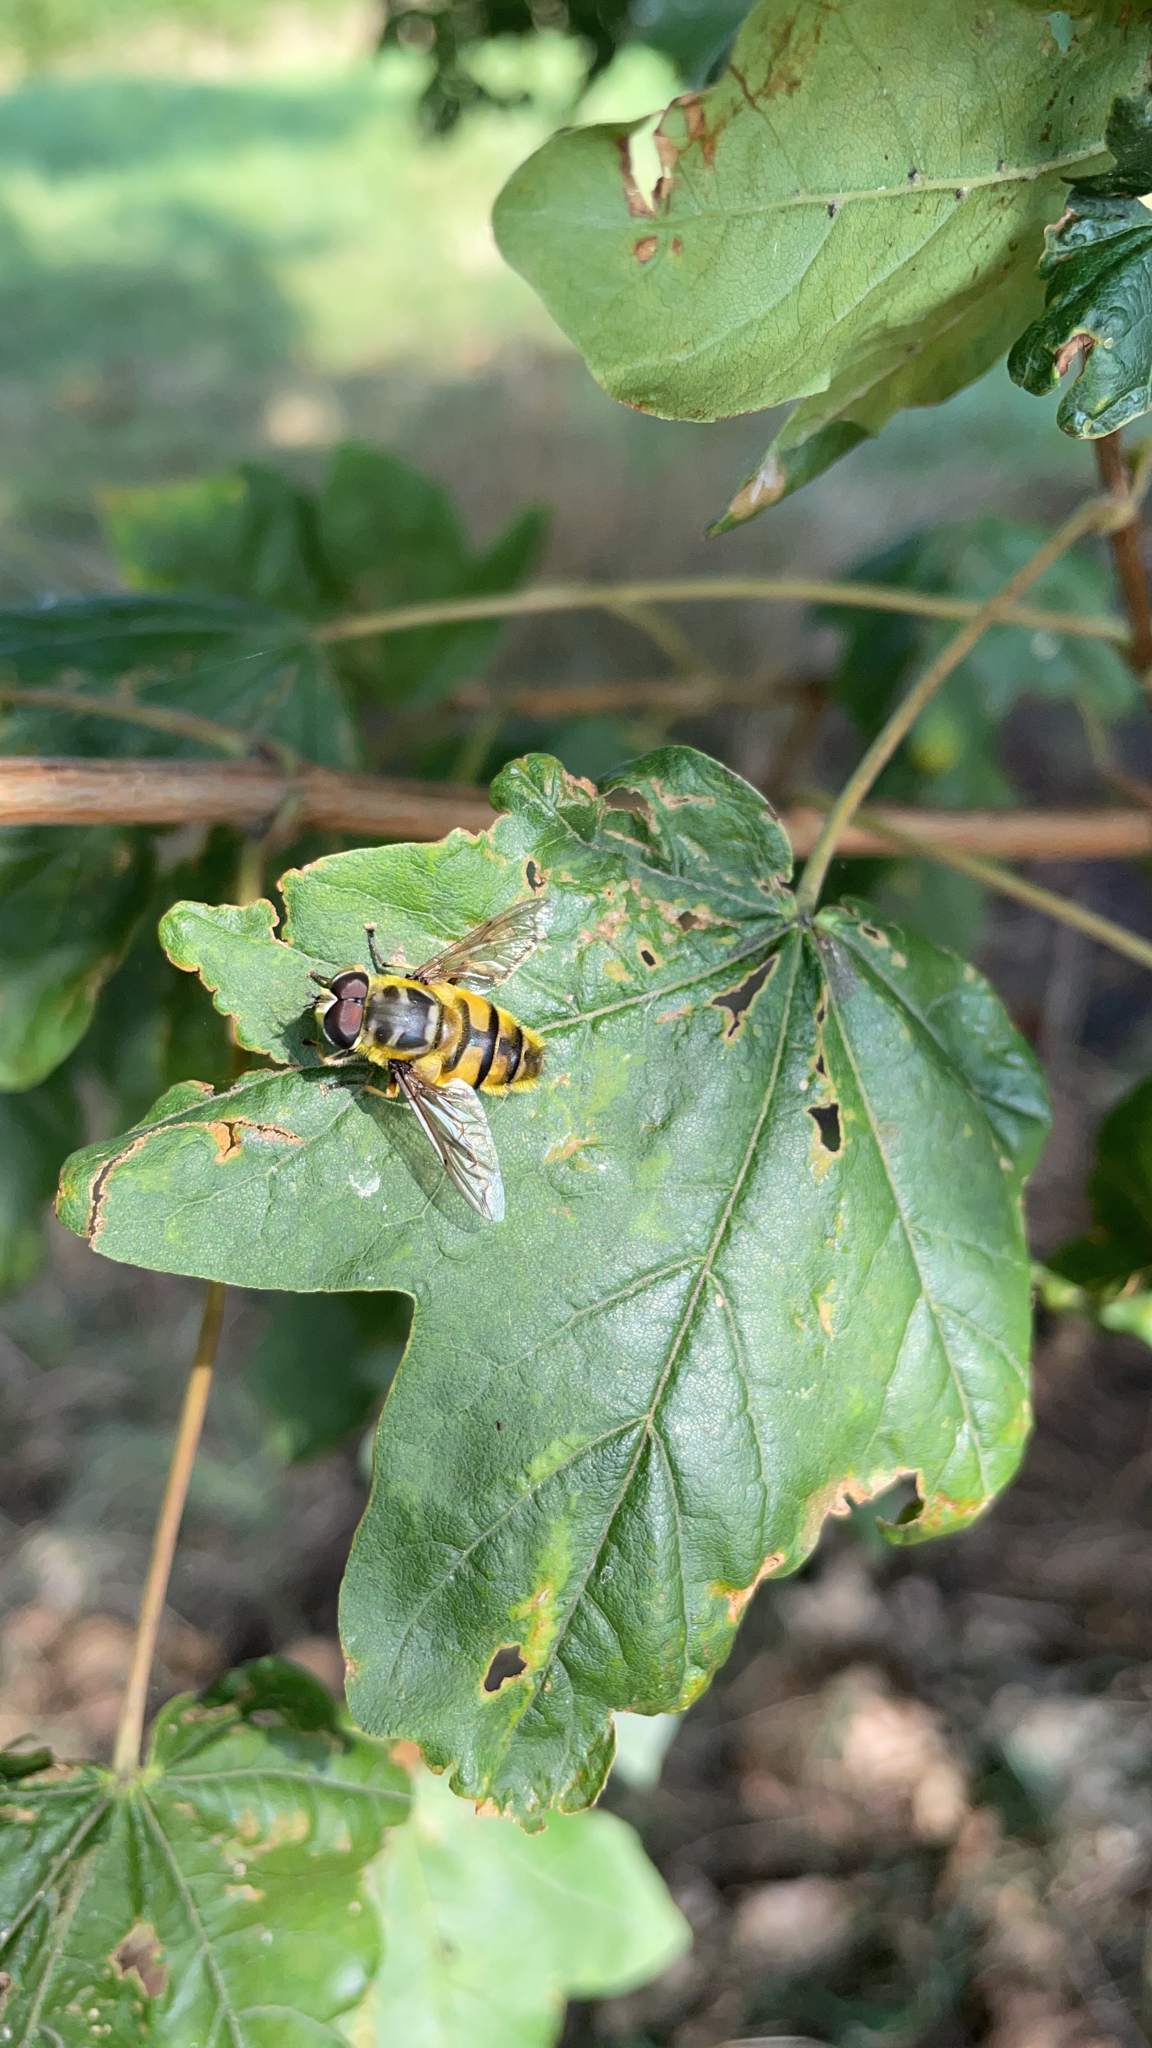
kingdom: Animalia
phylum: Arthropoda
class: Insecta
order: Diptera
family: Syrphidae
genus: Myathropa
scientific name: Myathropa florea
